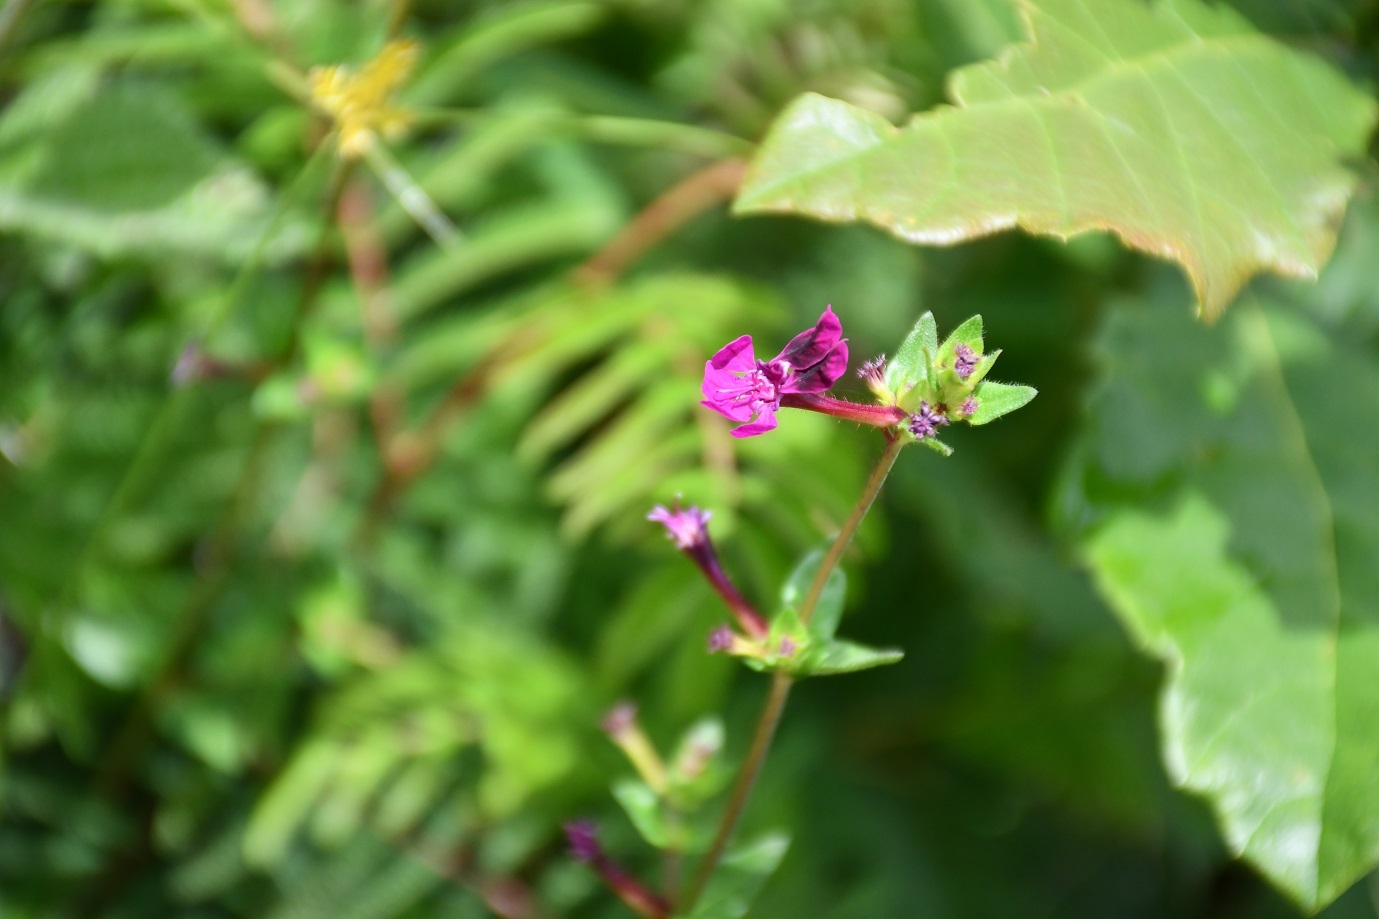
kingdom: Plantae
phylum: Tracheophyta
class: Magnoliopsida
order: Myrtales
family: Lythraceae
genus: Cuphea
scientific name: Cuphea aequipetala
